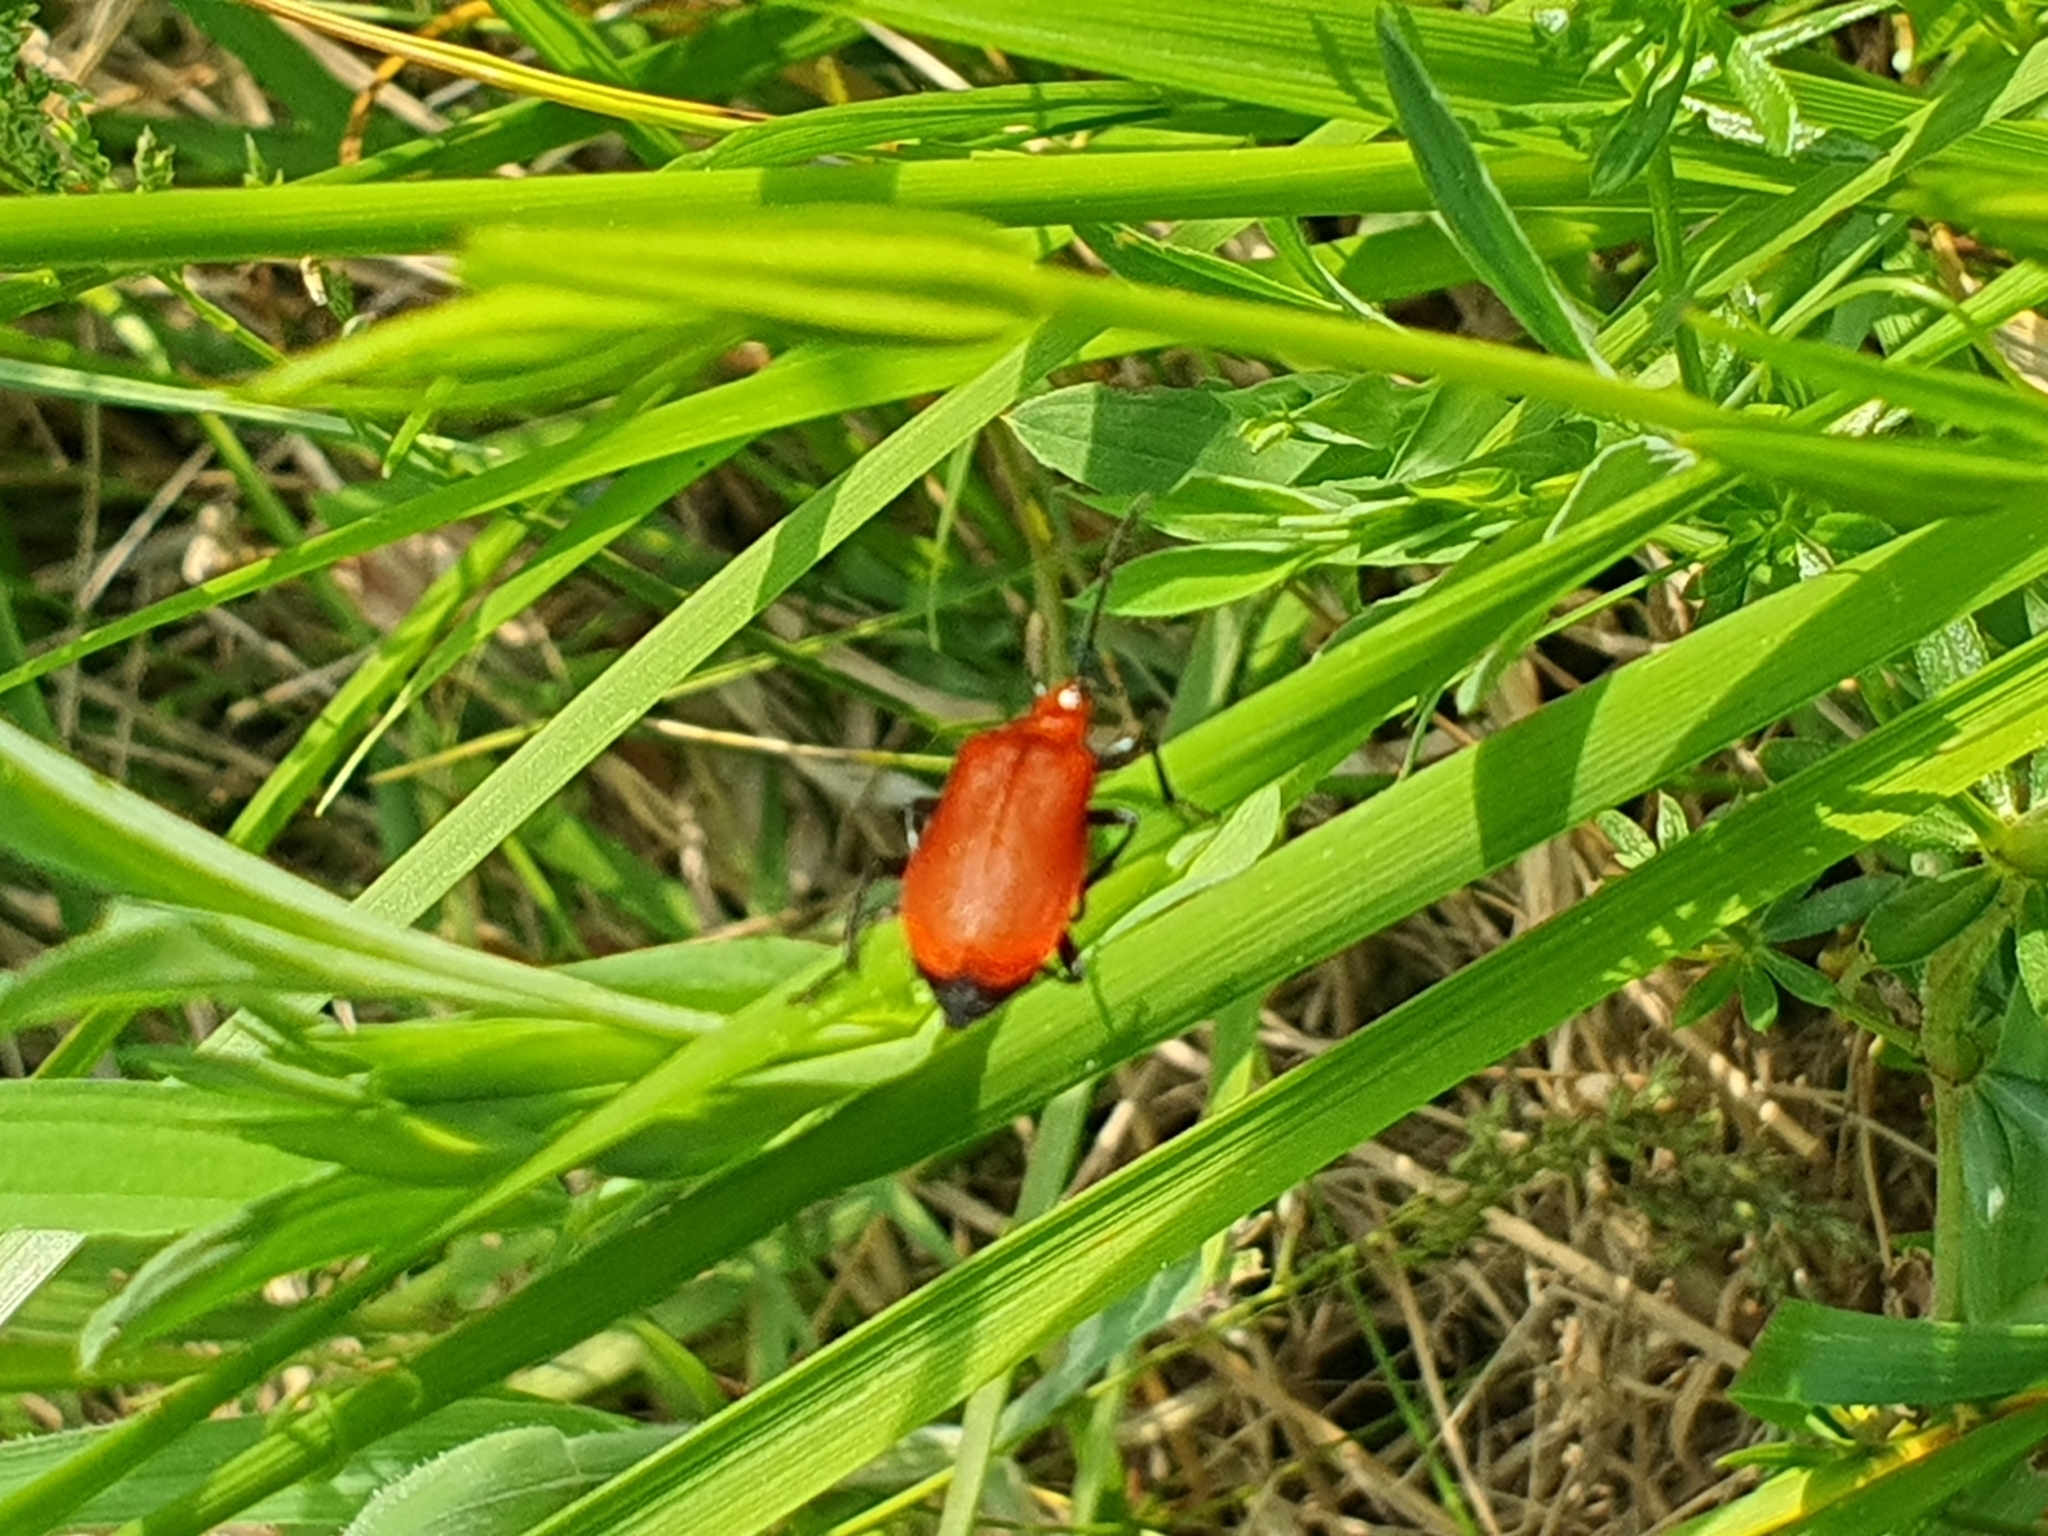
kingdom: Animalia
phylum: Arthropoda
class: Insecta
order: Coleoptera
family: Pyrochroidae
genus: Pyrochroa
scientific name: Pyrochroa serraticornis
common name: Red-headed cardinal beetle
